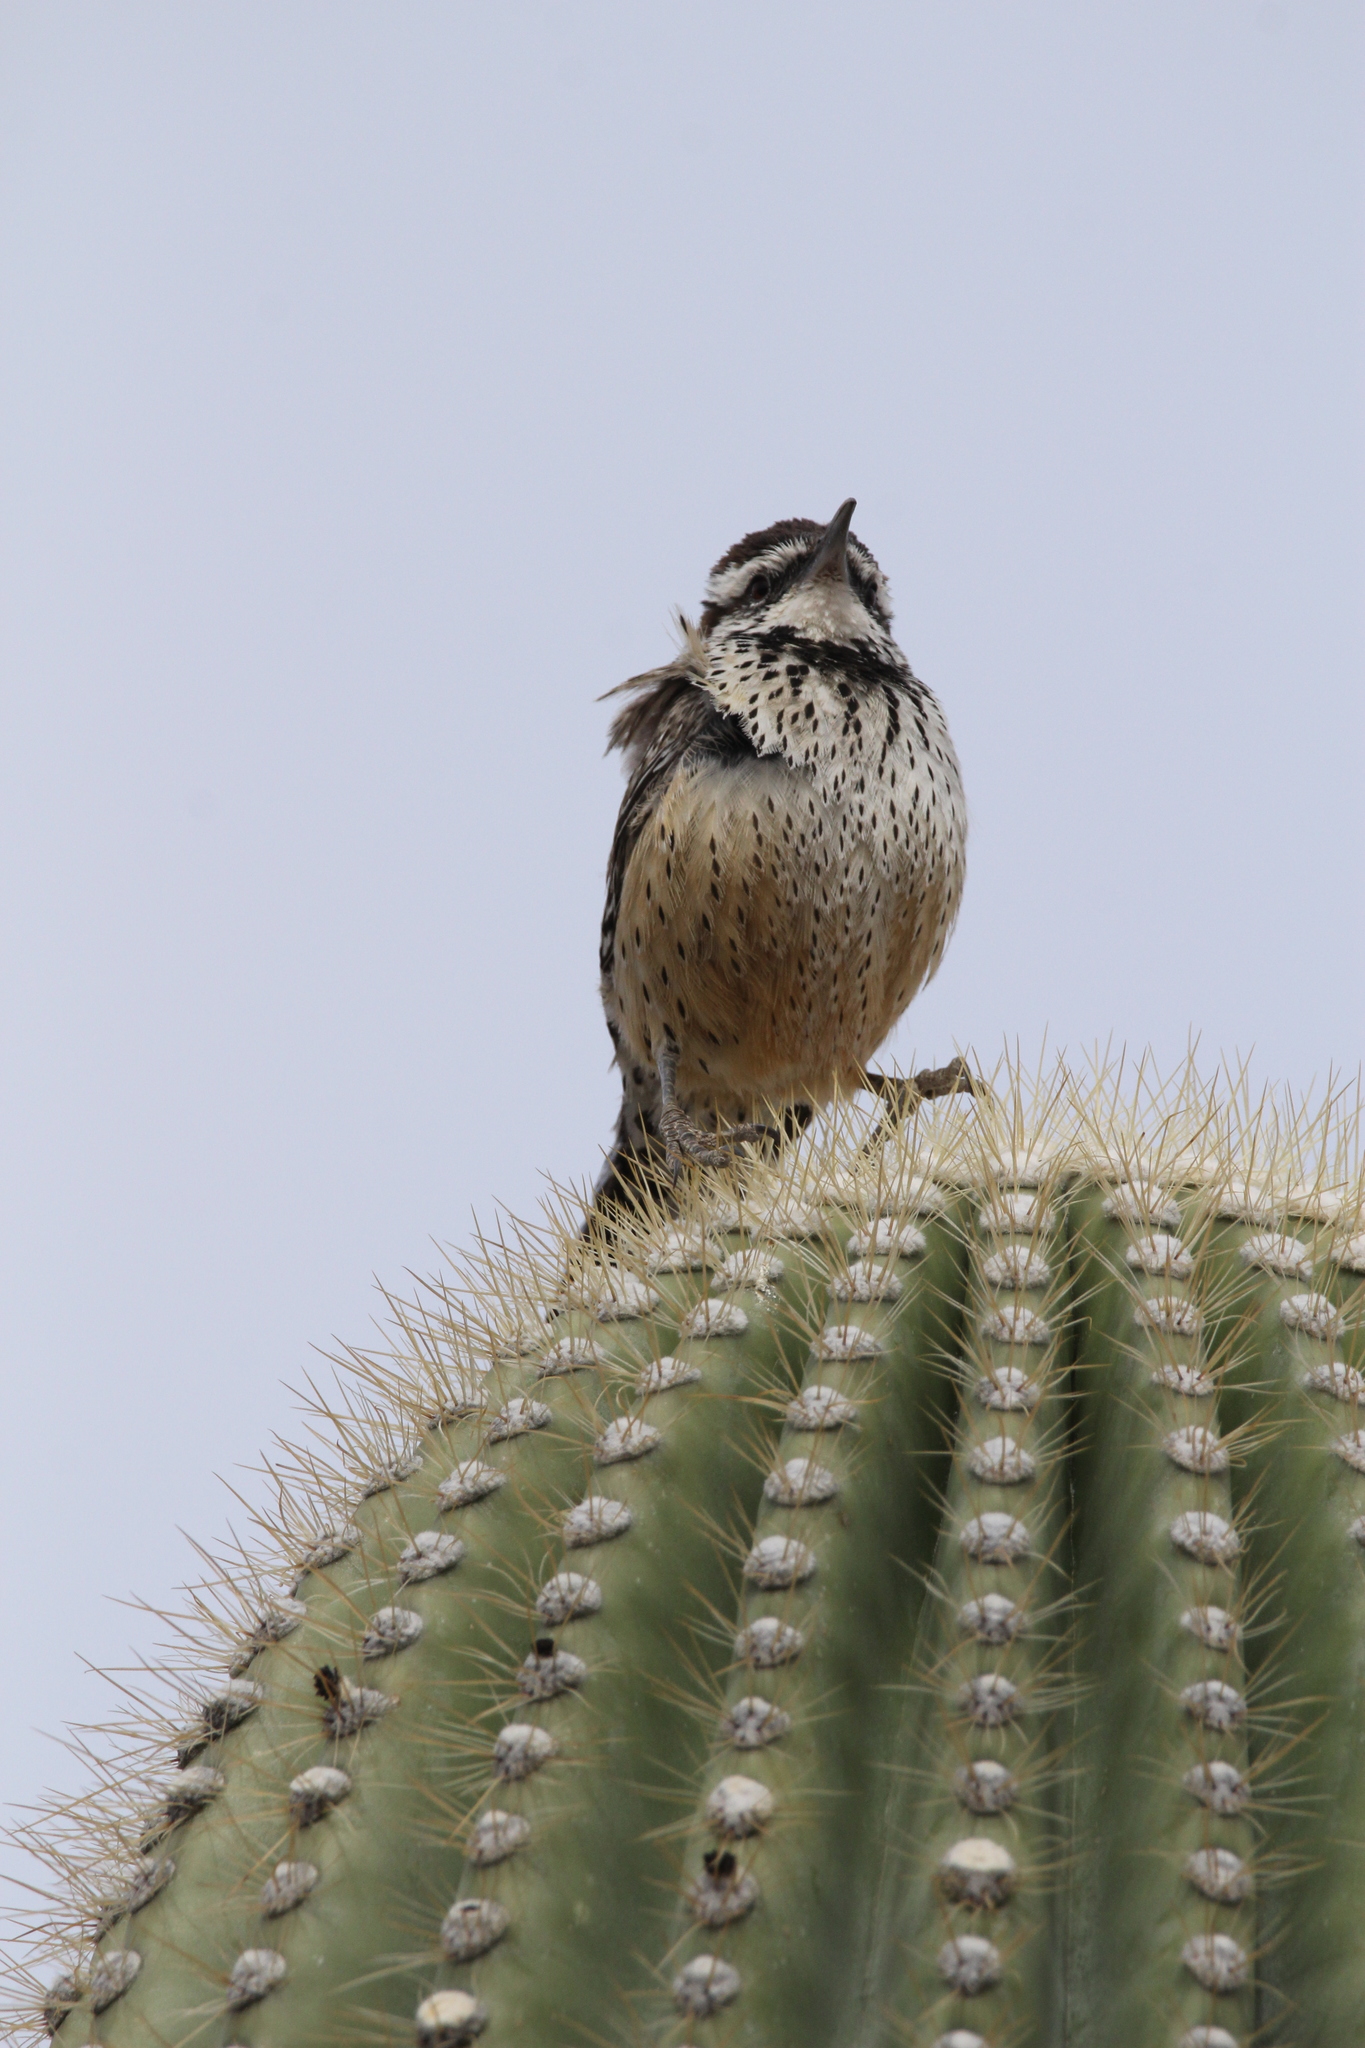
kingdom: Animalia
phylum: Chordata
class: Aves
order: Passeriformes
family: Troglodytidae
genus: Campylorhynchus
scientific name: Campylorhynchus brunneicapillus
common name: Cactus wren
